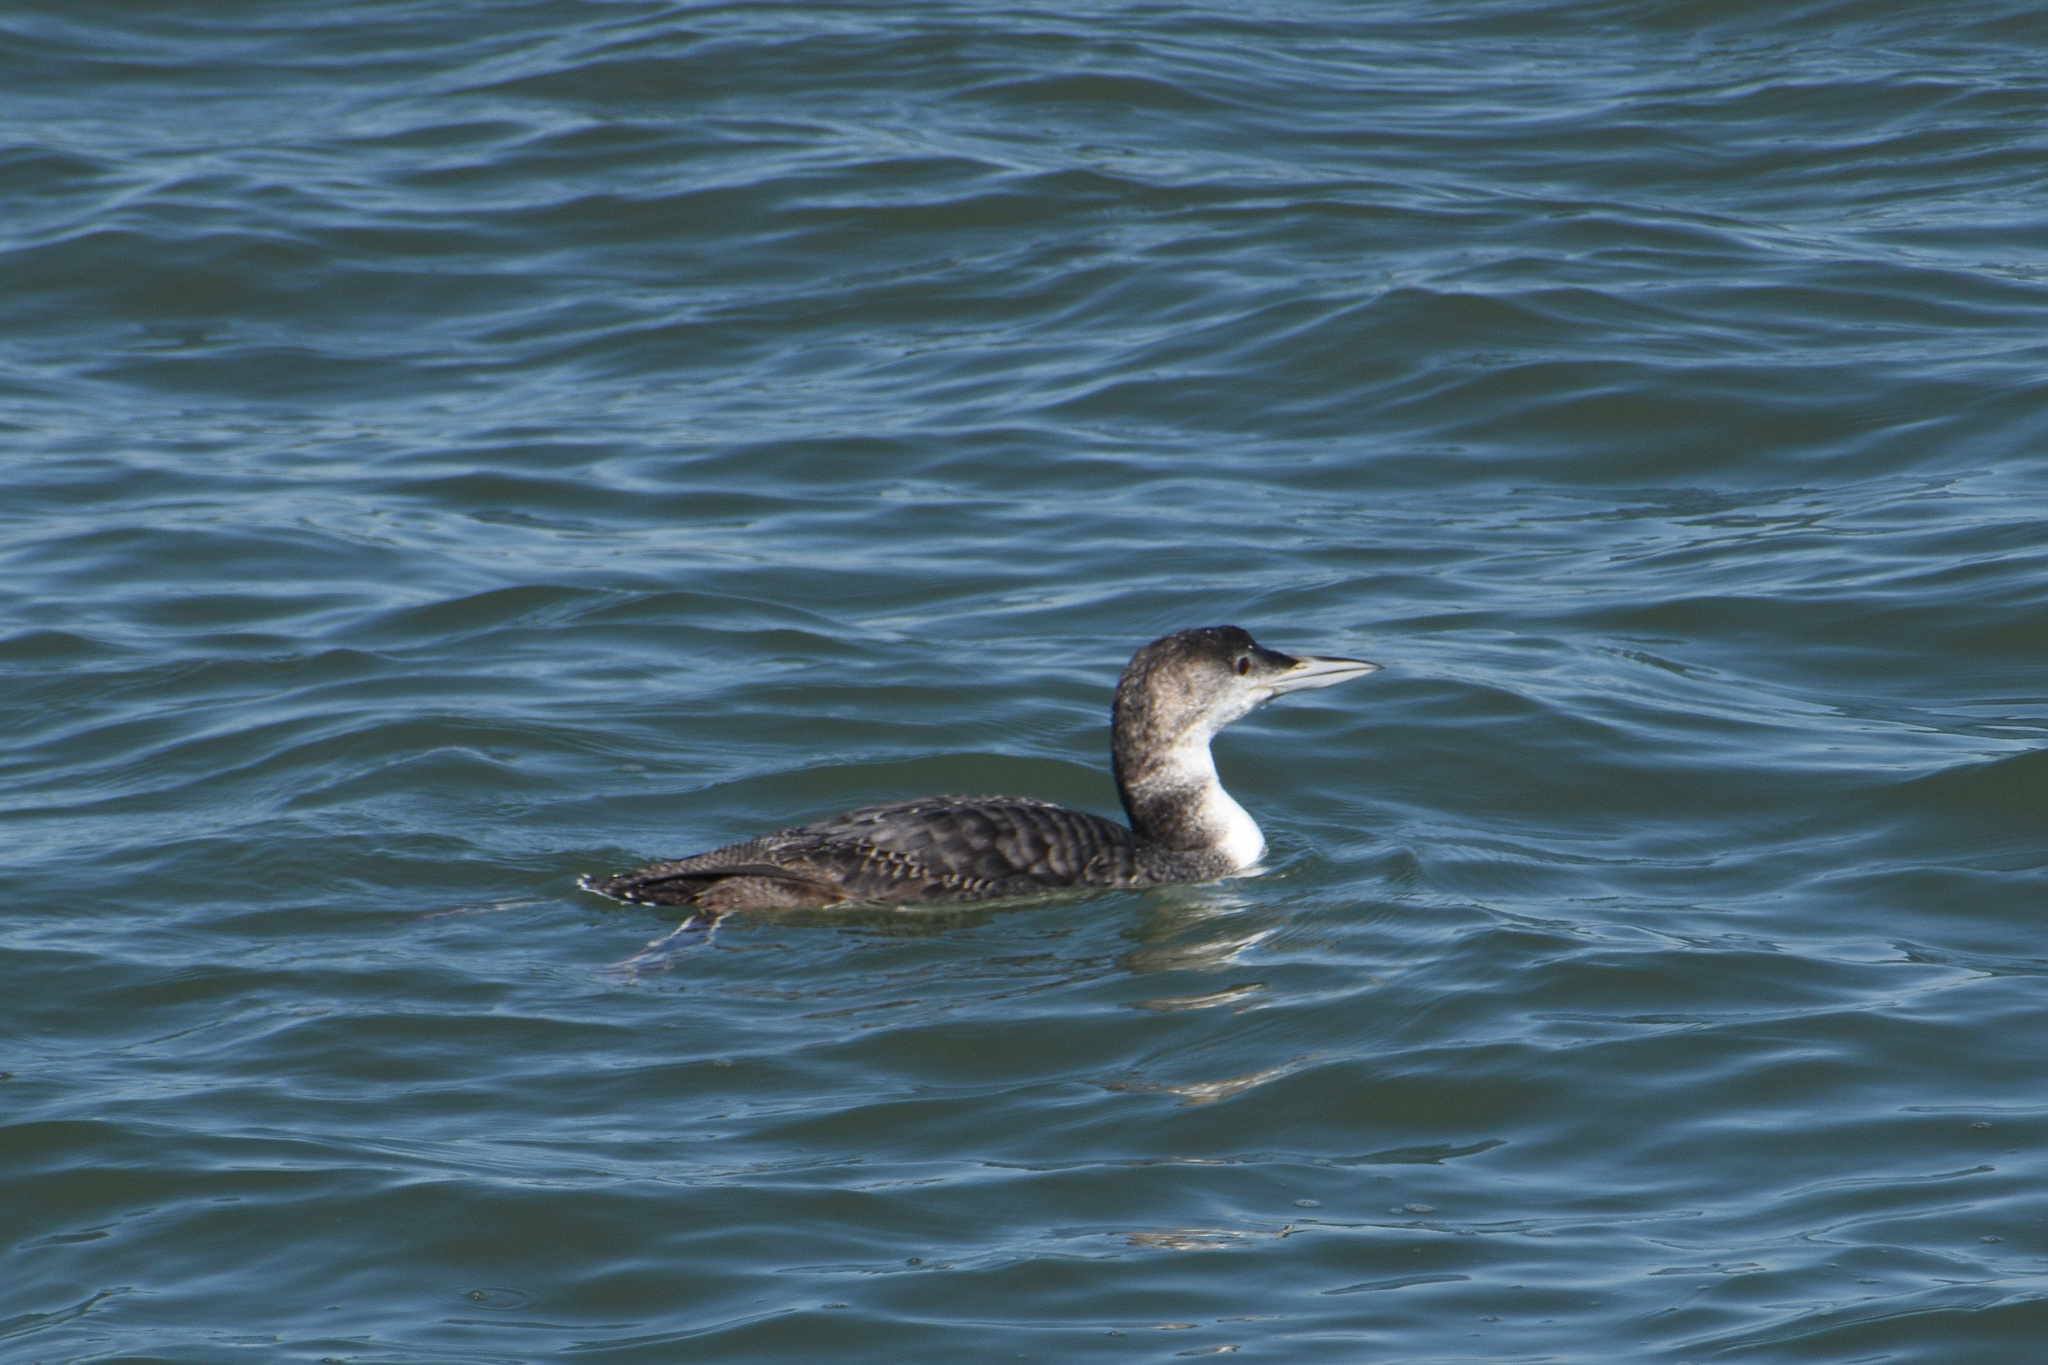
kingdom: Animalia
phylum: Chordata
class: Aves
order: Gaviiformes
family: Gaviidae
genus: Gavia
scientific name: Gavia immer
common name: Common loon
